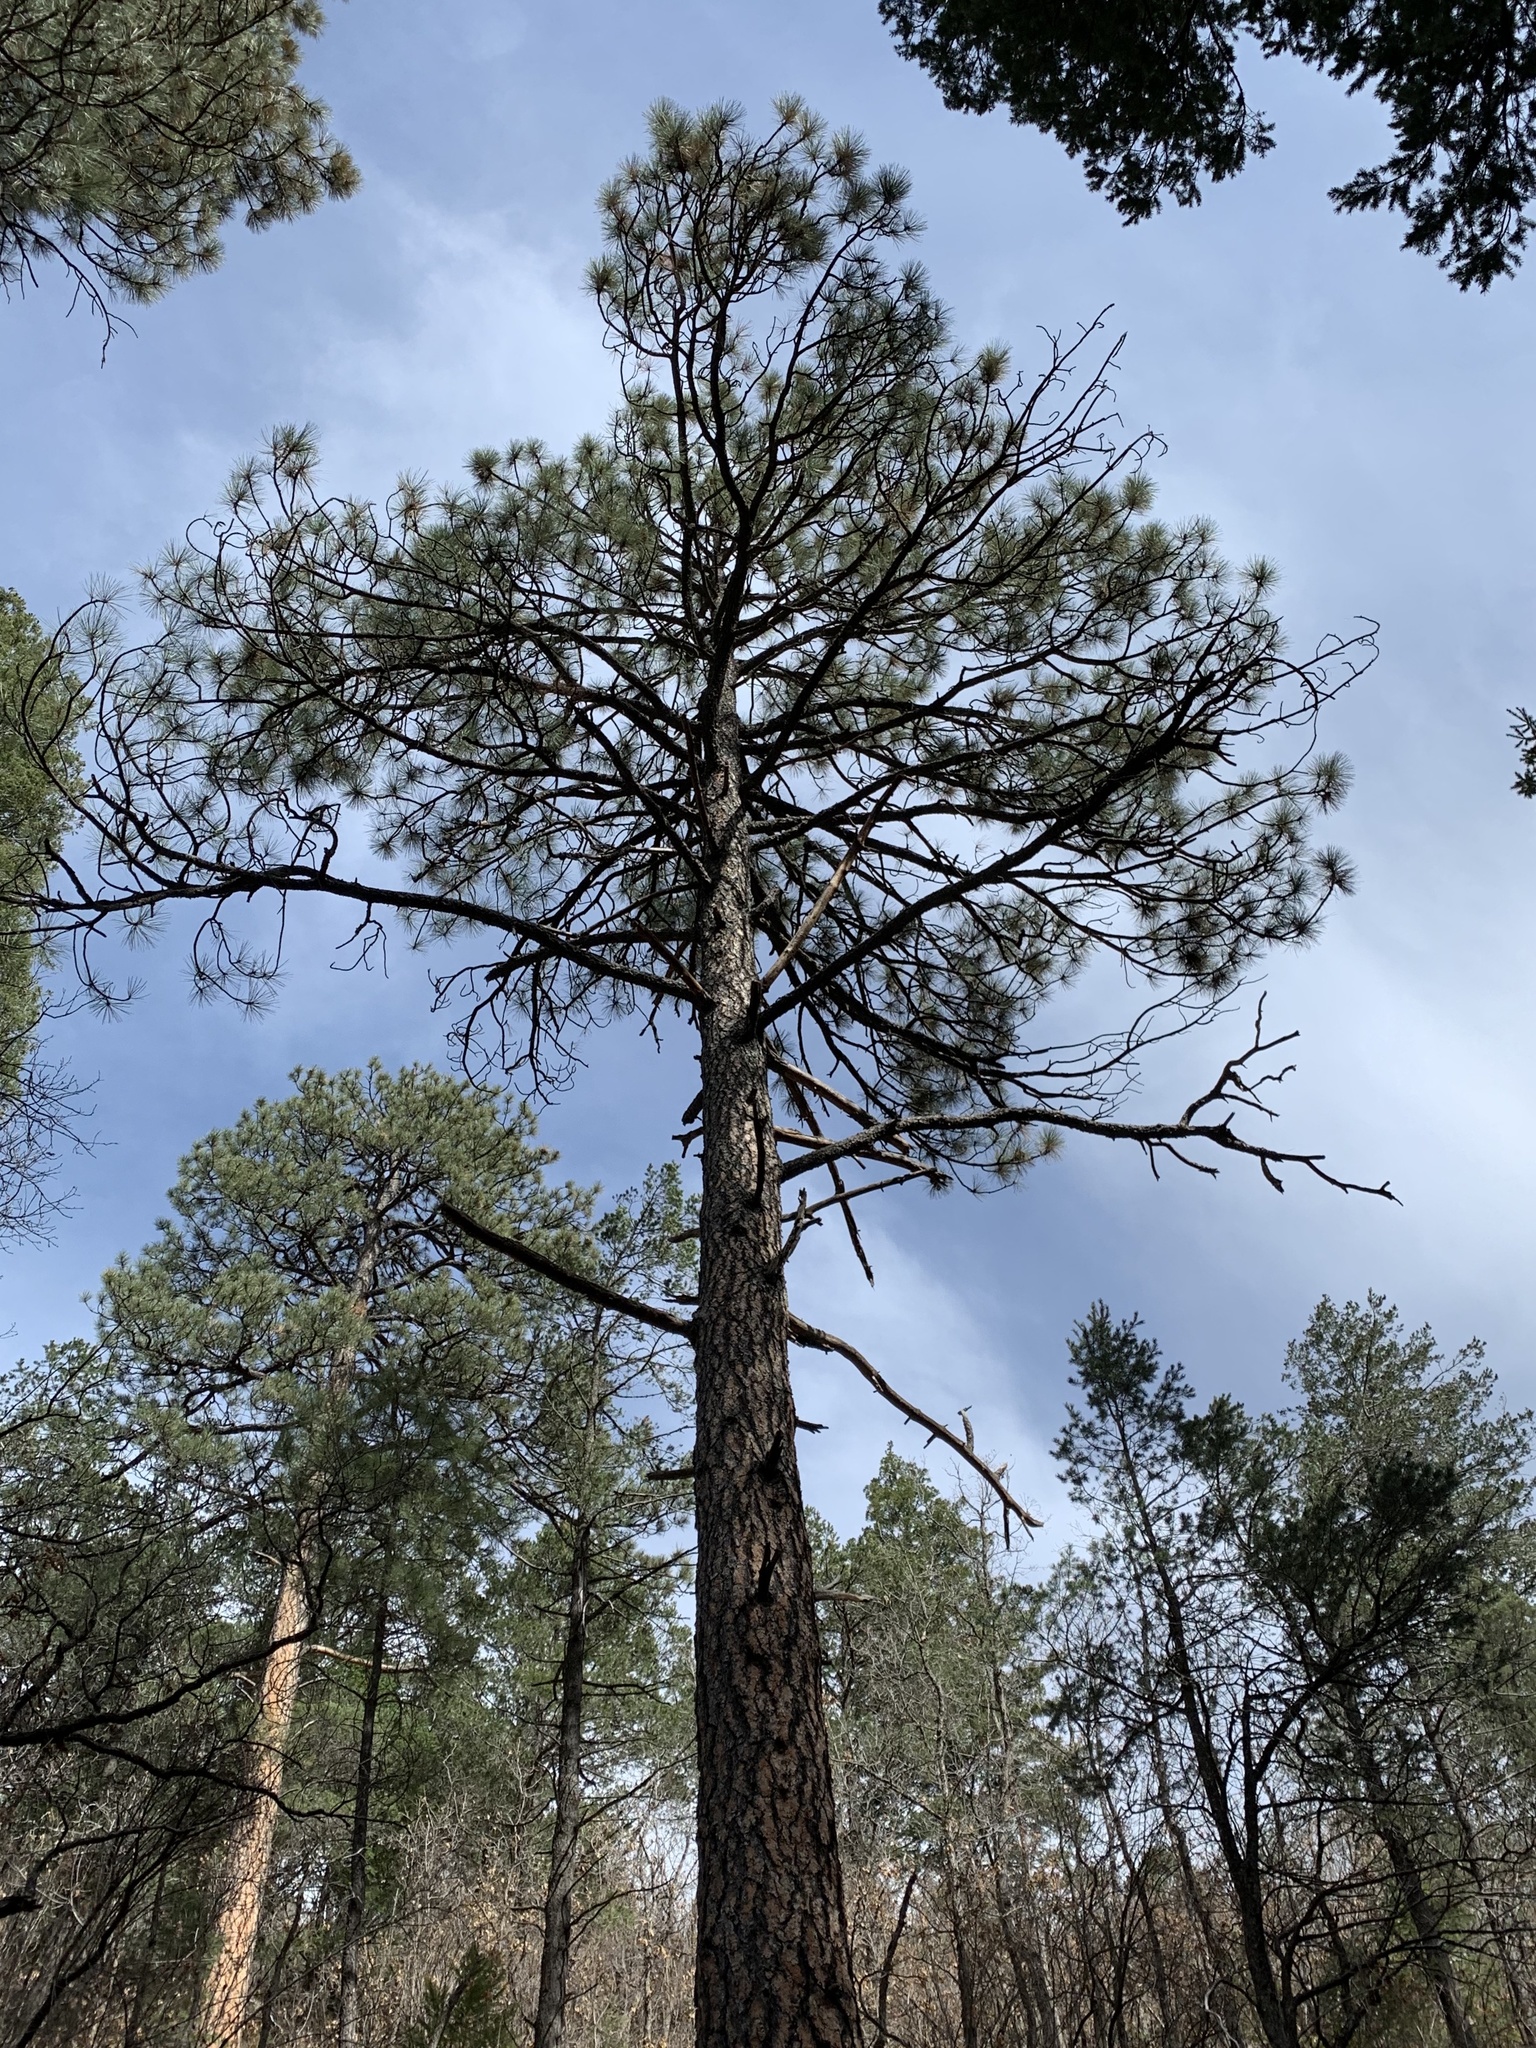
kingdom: Plantae
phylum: Tracheophyta
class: Pinopsida
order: Pinales
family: Pinaceae
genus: Pinus
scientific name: Pinus ponderosa
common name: Western yellow-pine
